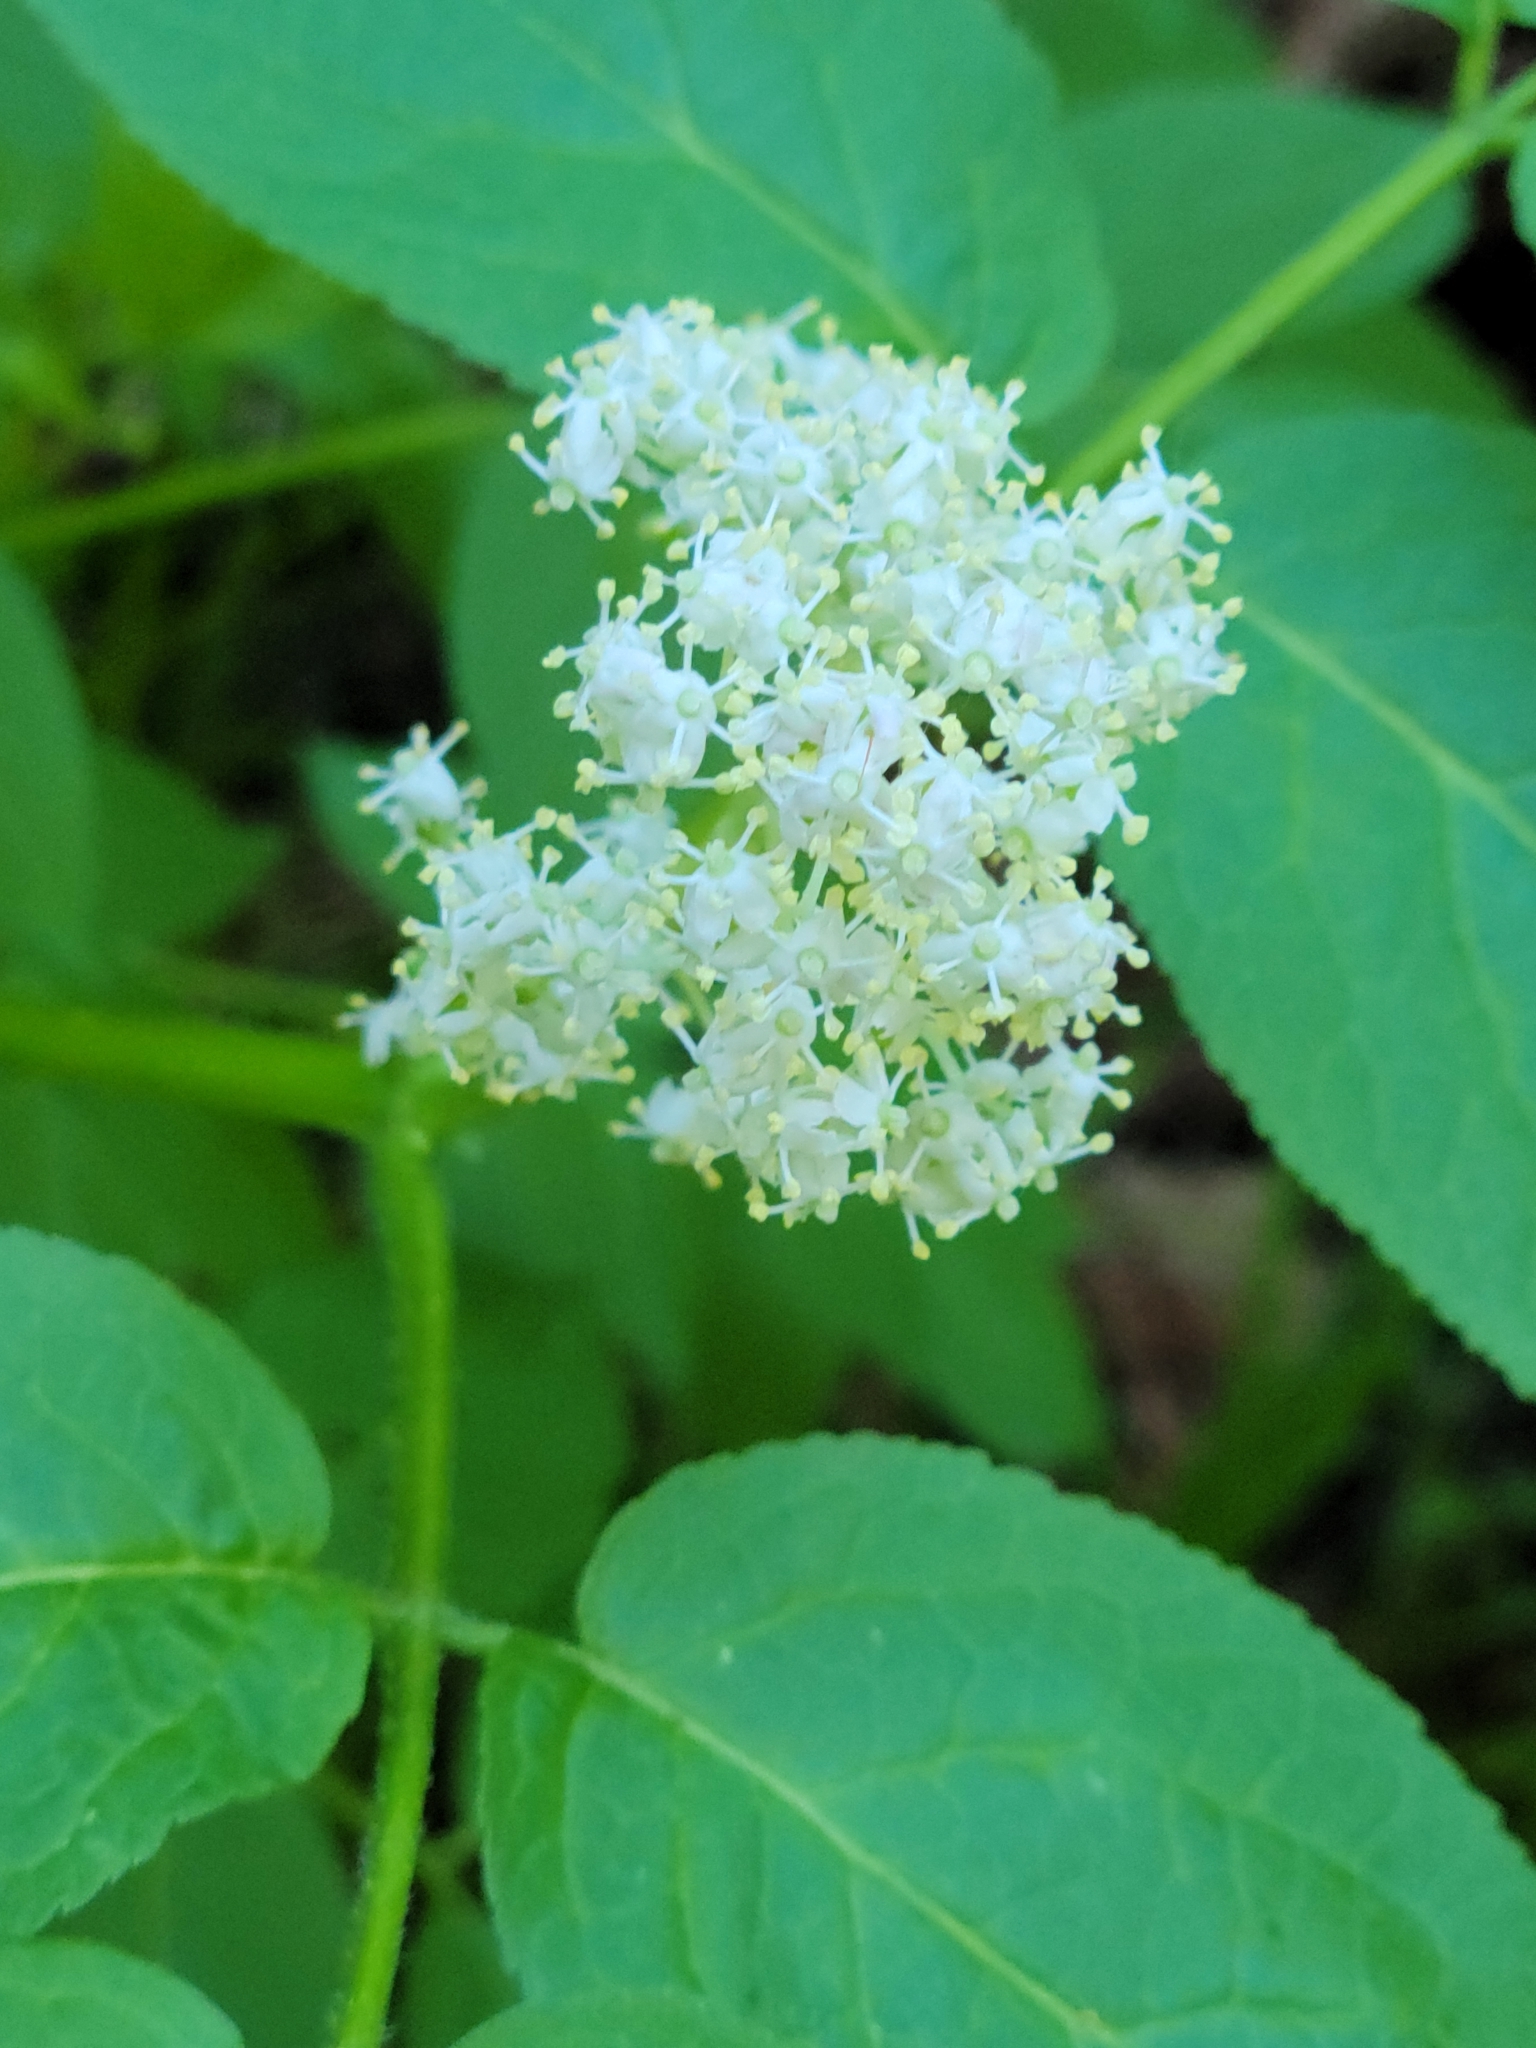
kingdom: Plantae
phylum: Tracheophyta
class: Magnoliopsida
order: Dipsacales
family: Viburnaceae
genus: Sambucus
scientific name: Sambucus racemosa
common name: Red-berried elder
